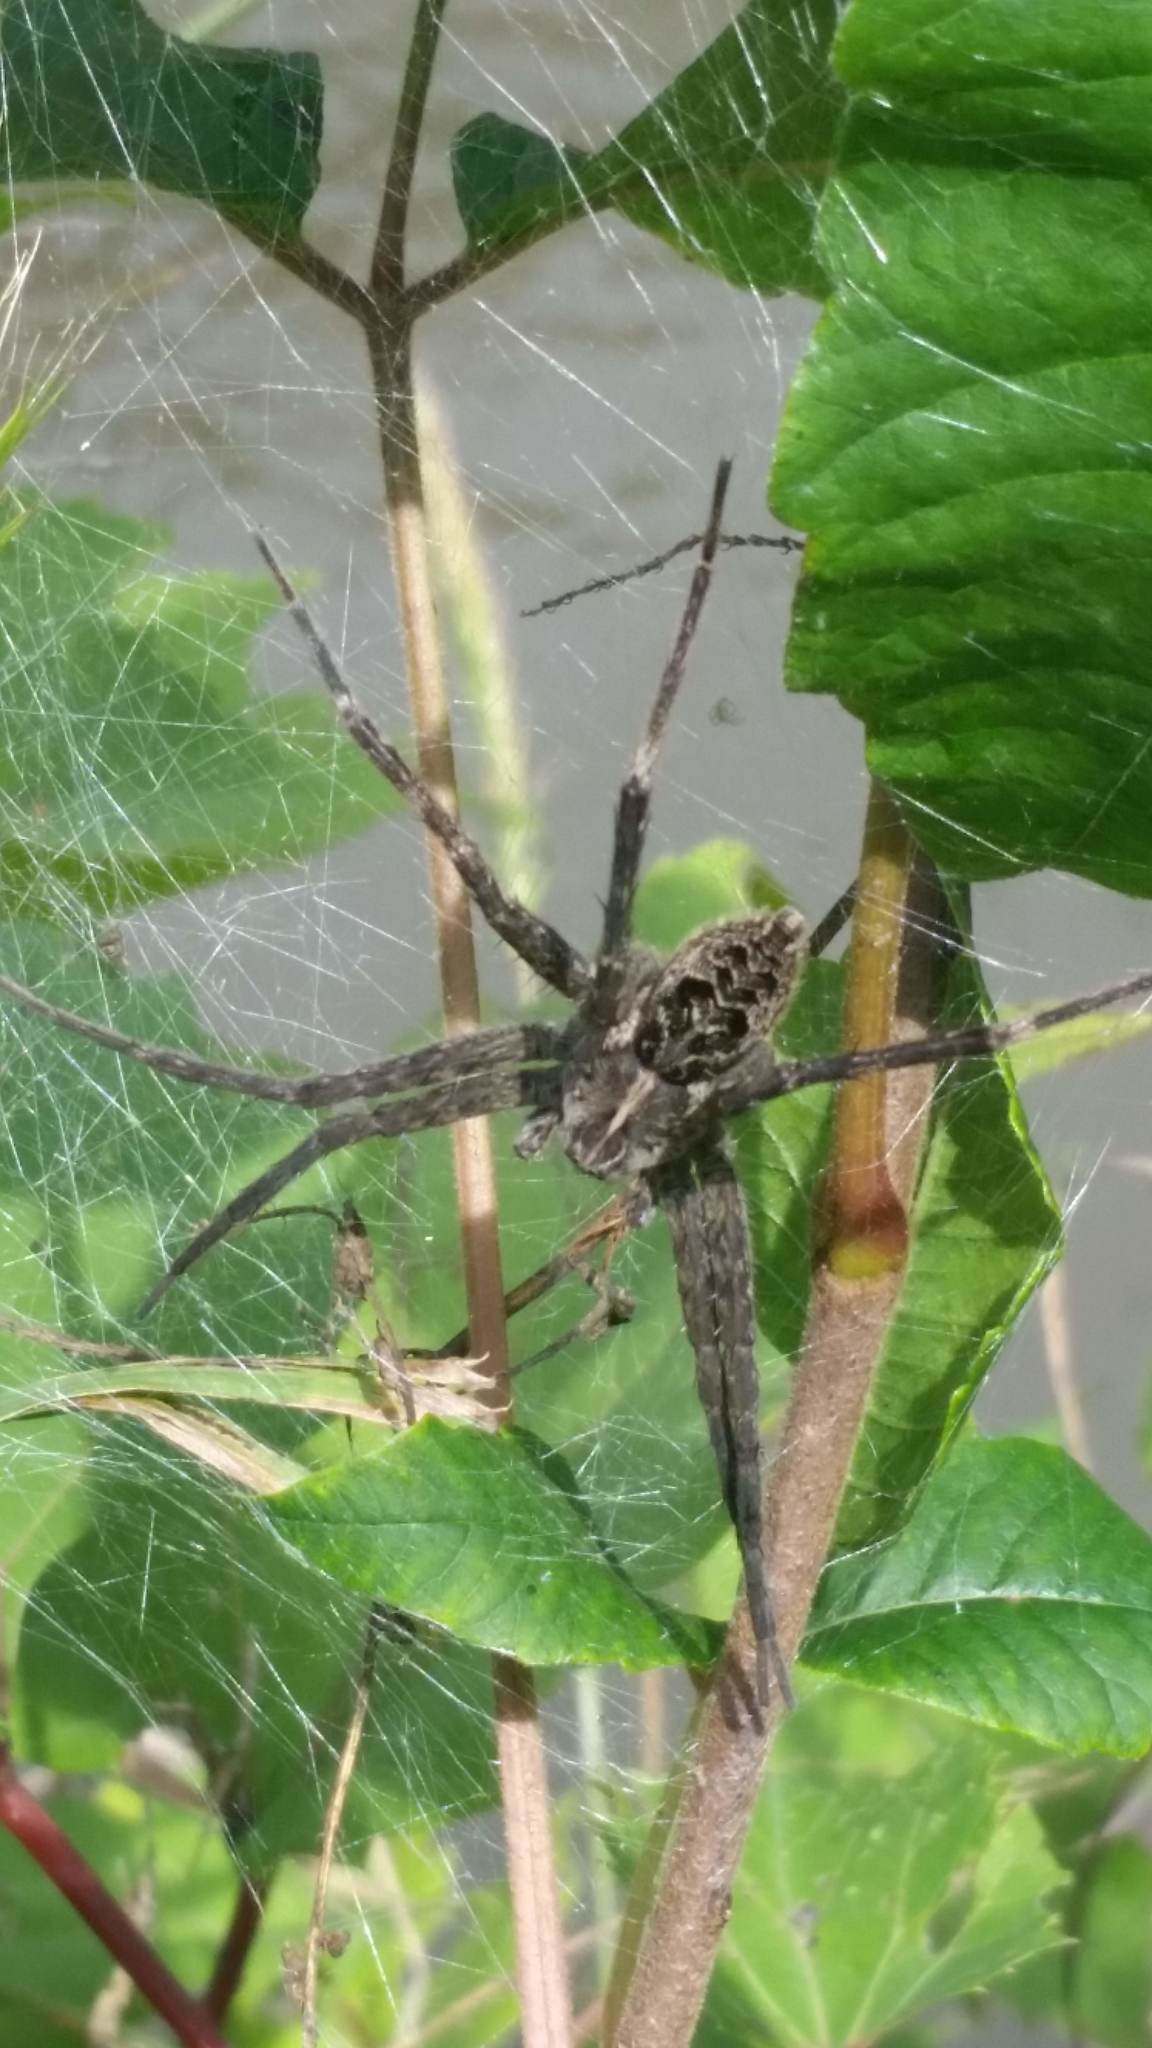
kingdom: Animalia
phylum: Arthropoda
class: Arachnida
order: Araneae
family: Pisauridae
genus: Dolomedes
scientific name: Dolomedes scriptus
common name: Striped fishing spider
